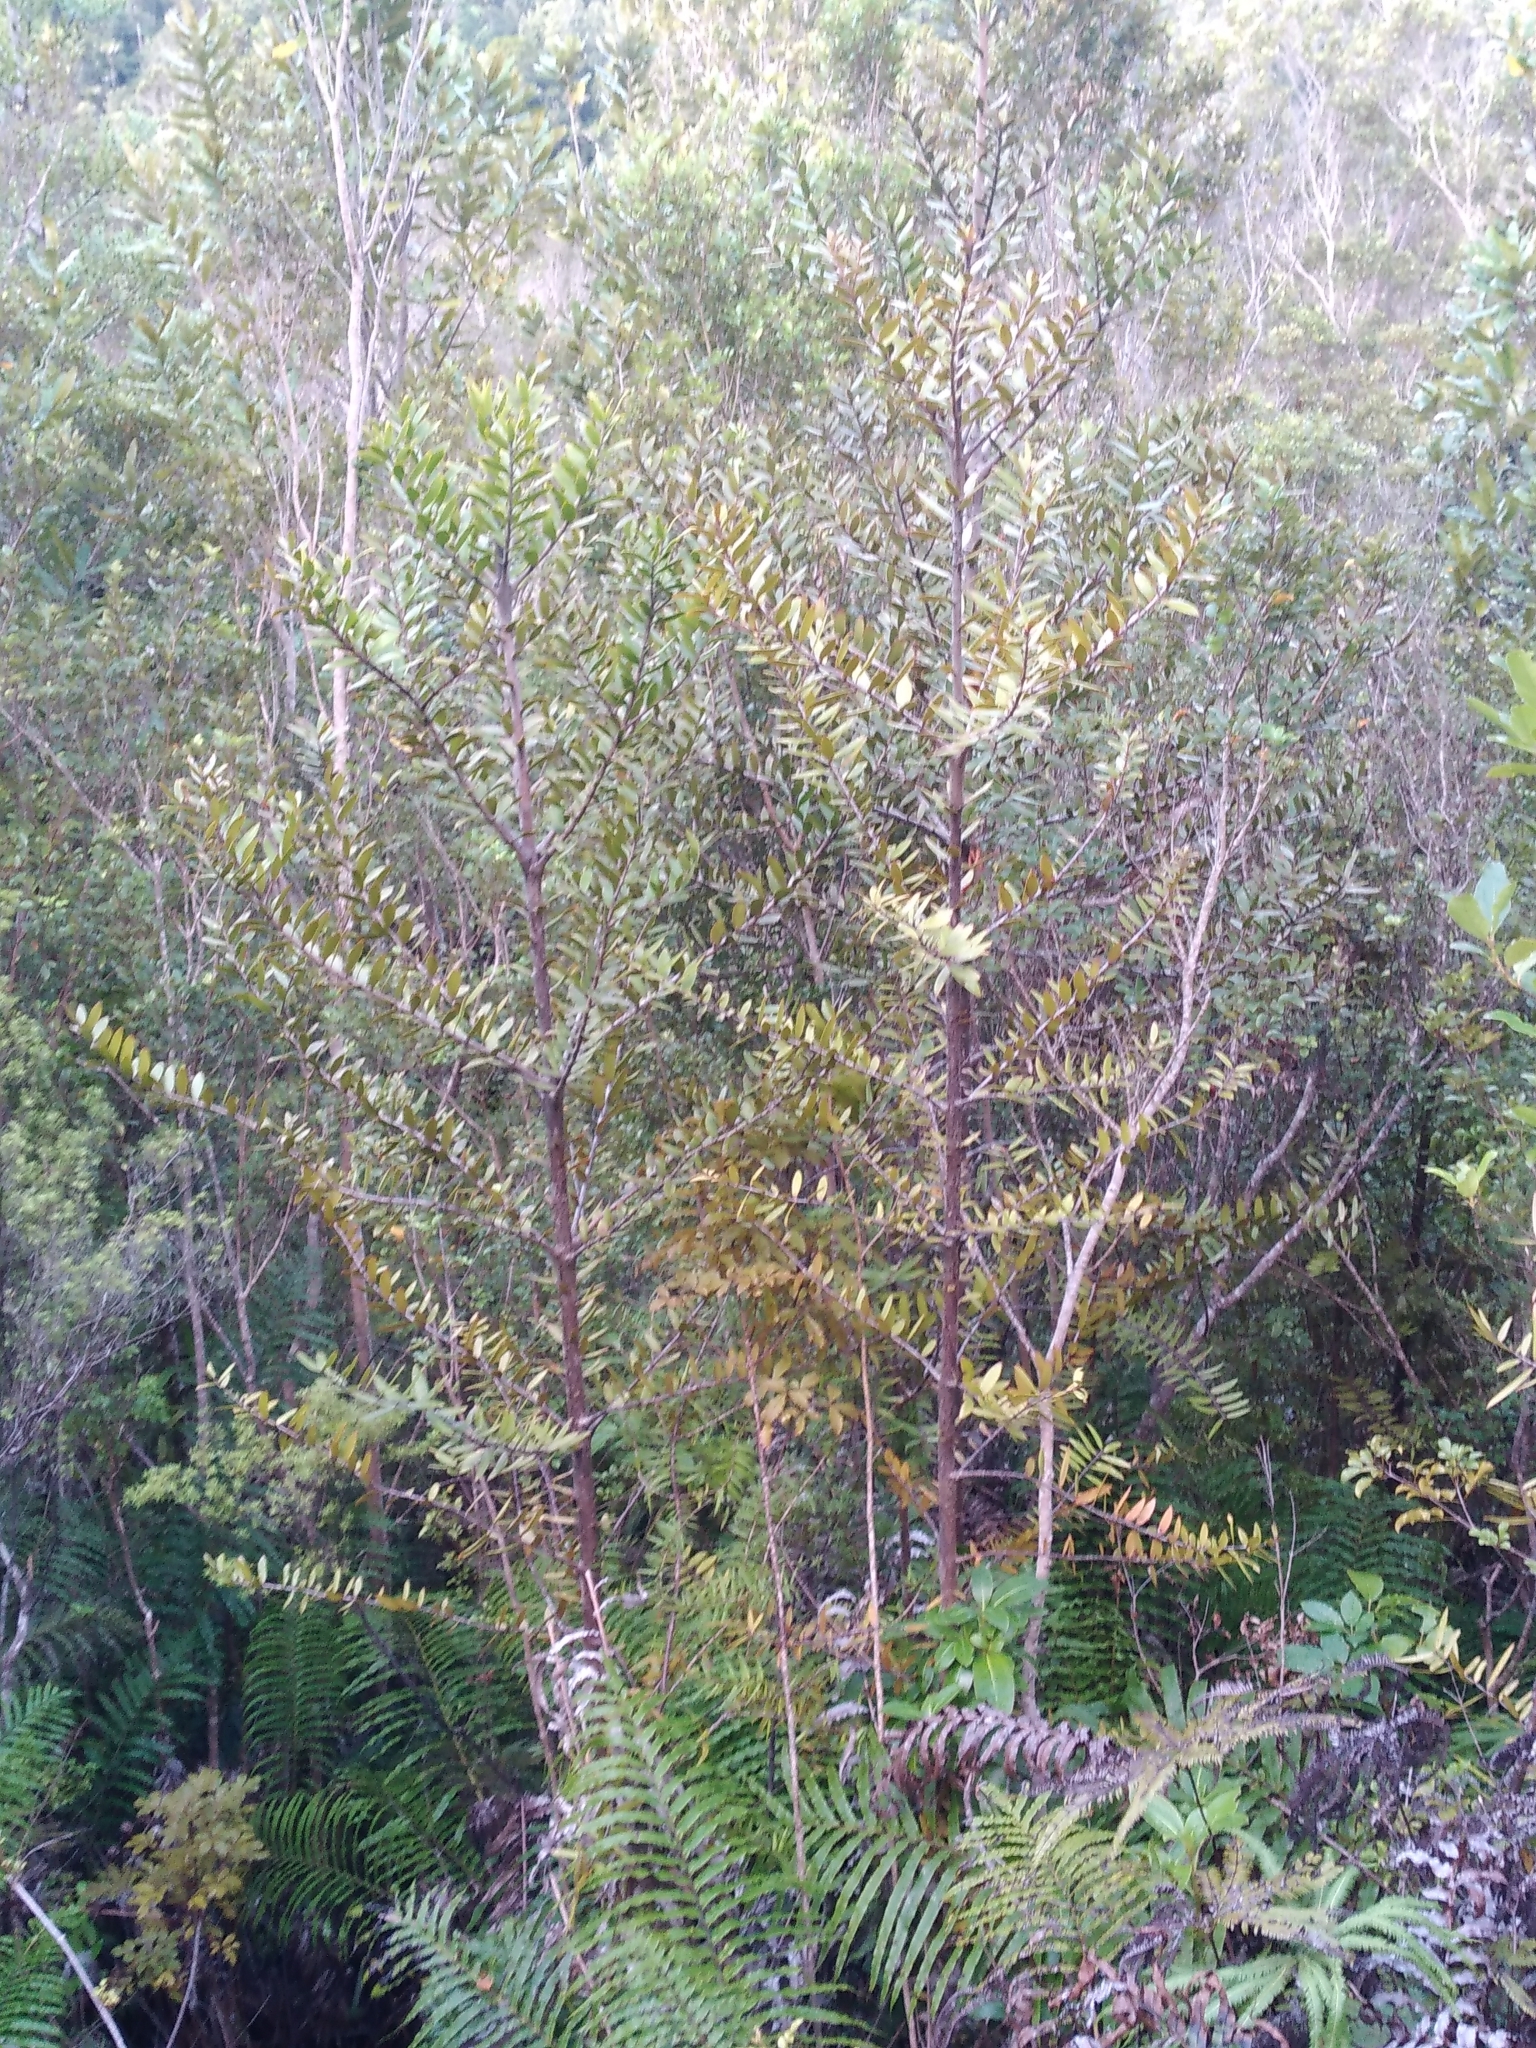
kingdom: Plantae
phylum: Tracheophyta
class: Pinopsida
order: Pinales
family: Araucariaceae
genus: Agathis
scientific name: Agathis australis
